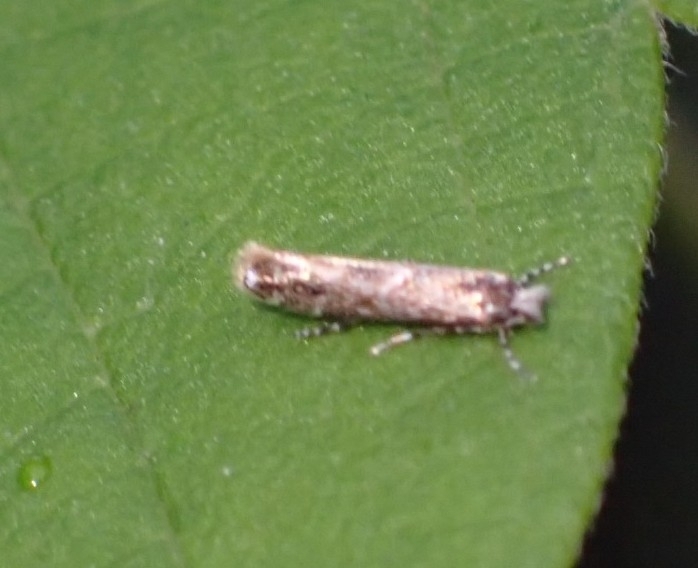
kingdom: Animalia
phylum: Arthropoda
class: Insecta
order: Lepidoptera
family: Gracillariidae
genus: Phyllonorycter
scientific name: Phyllonorycter issikii
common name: Linden midget
